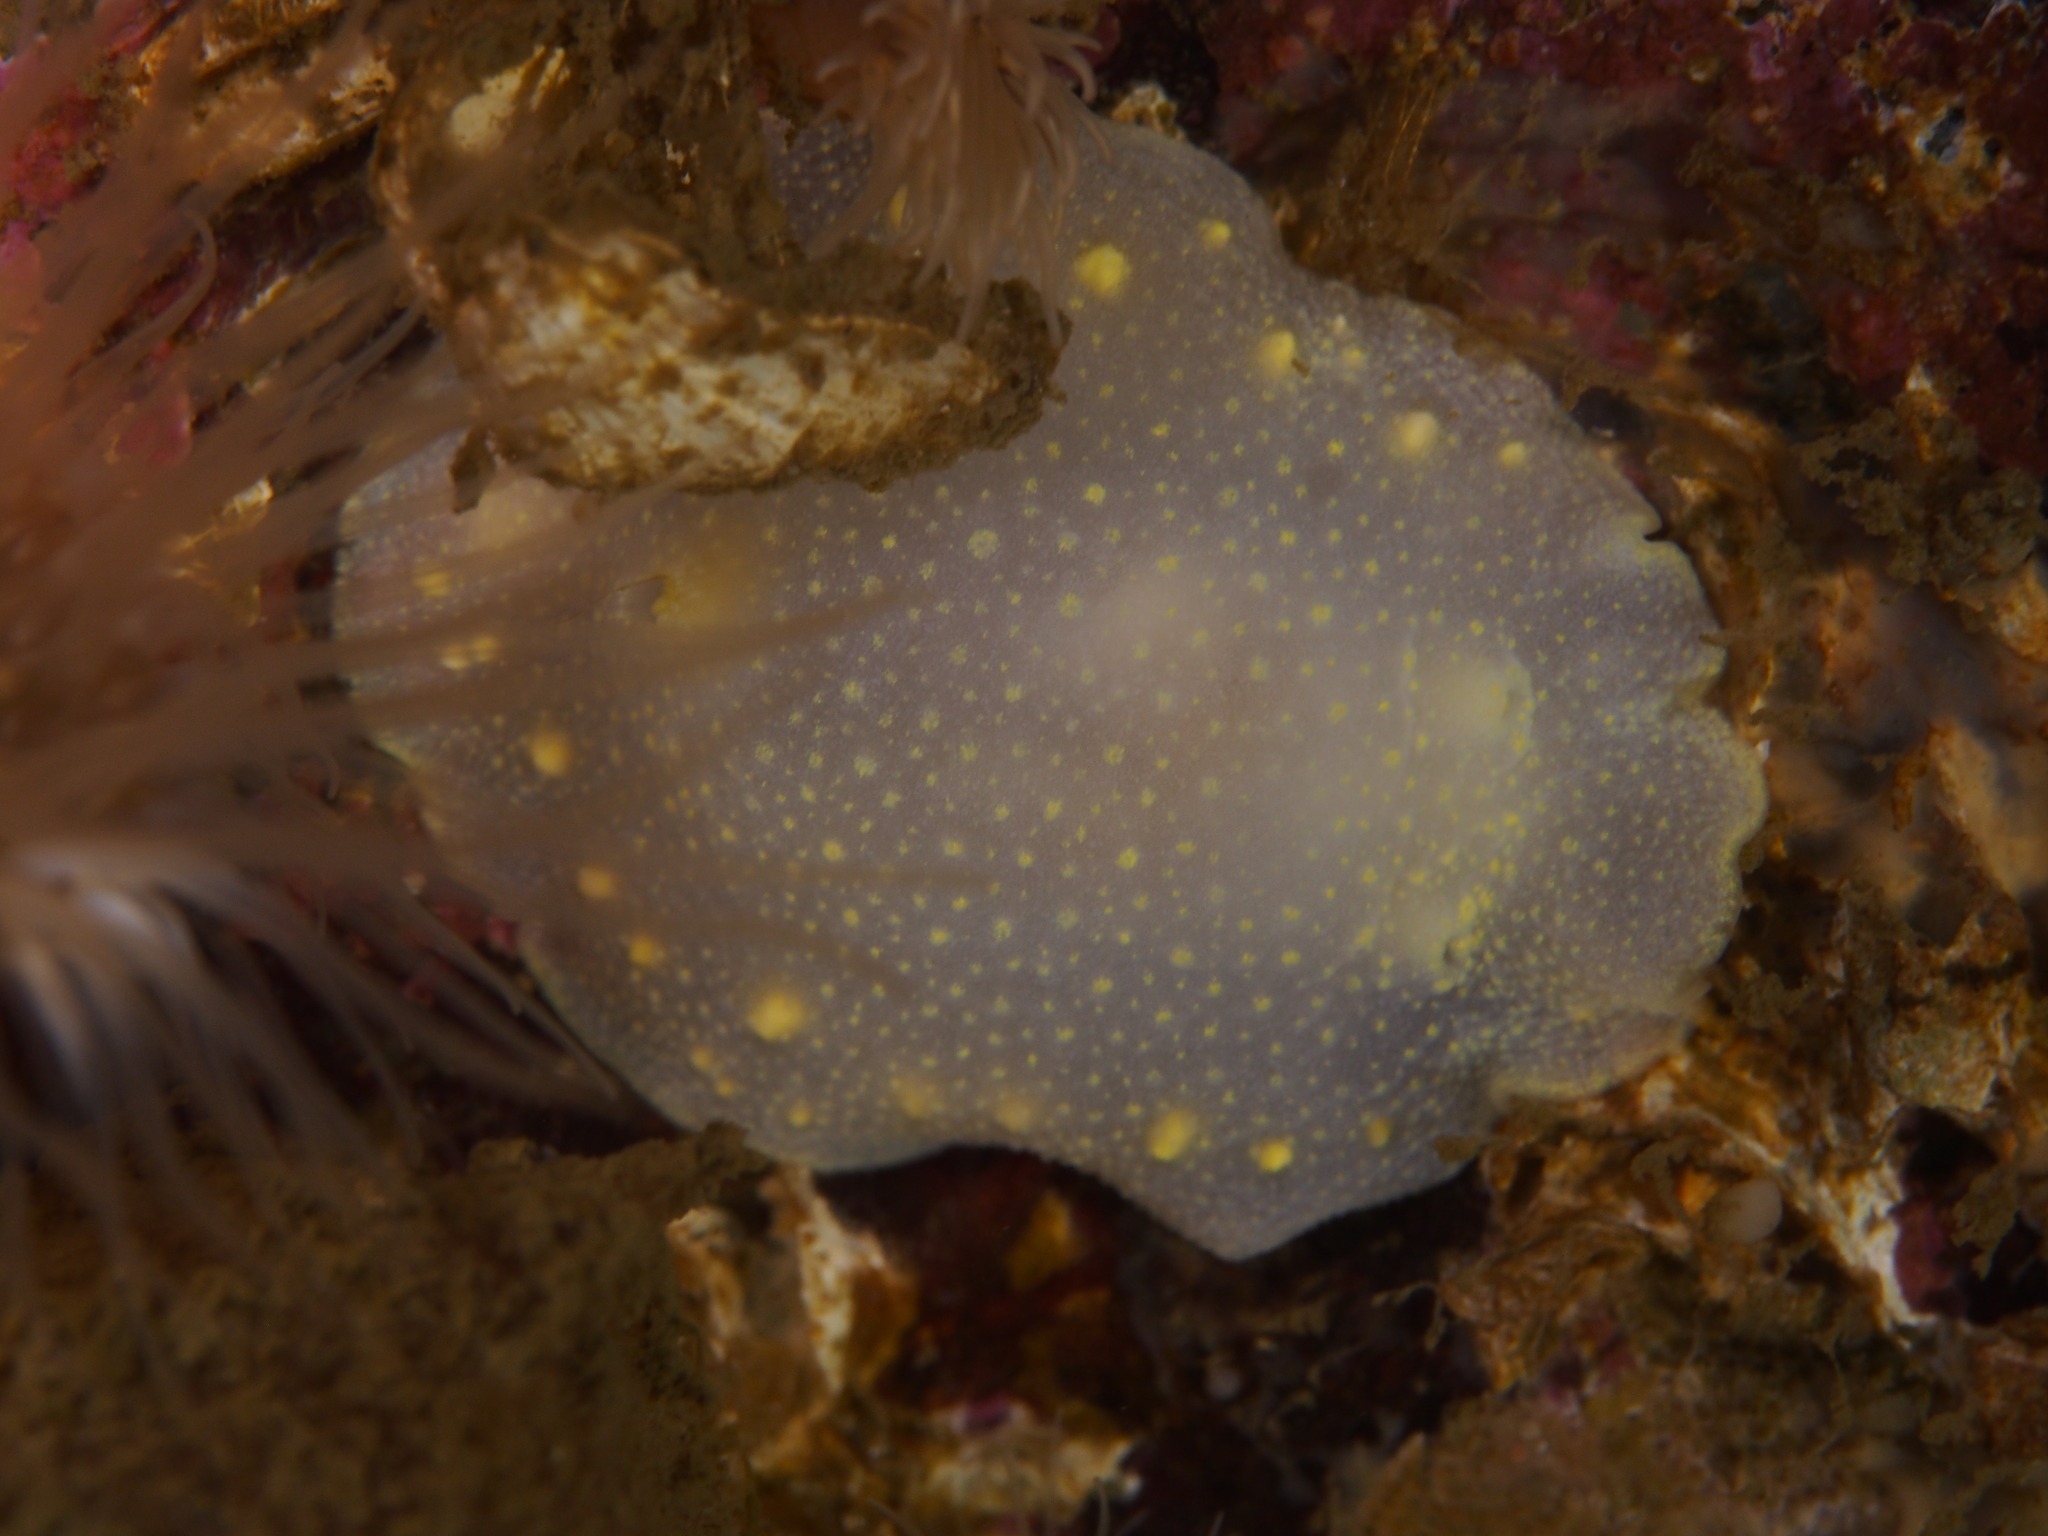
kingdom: Animalia
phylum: Mollusca
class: Gastropoda
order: Nudibranchia
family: Cadlinidae
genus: Cadlina
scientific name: Cadlina laevis
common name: White atlantic cadlina
